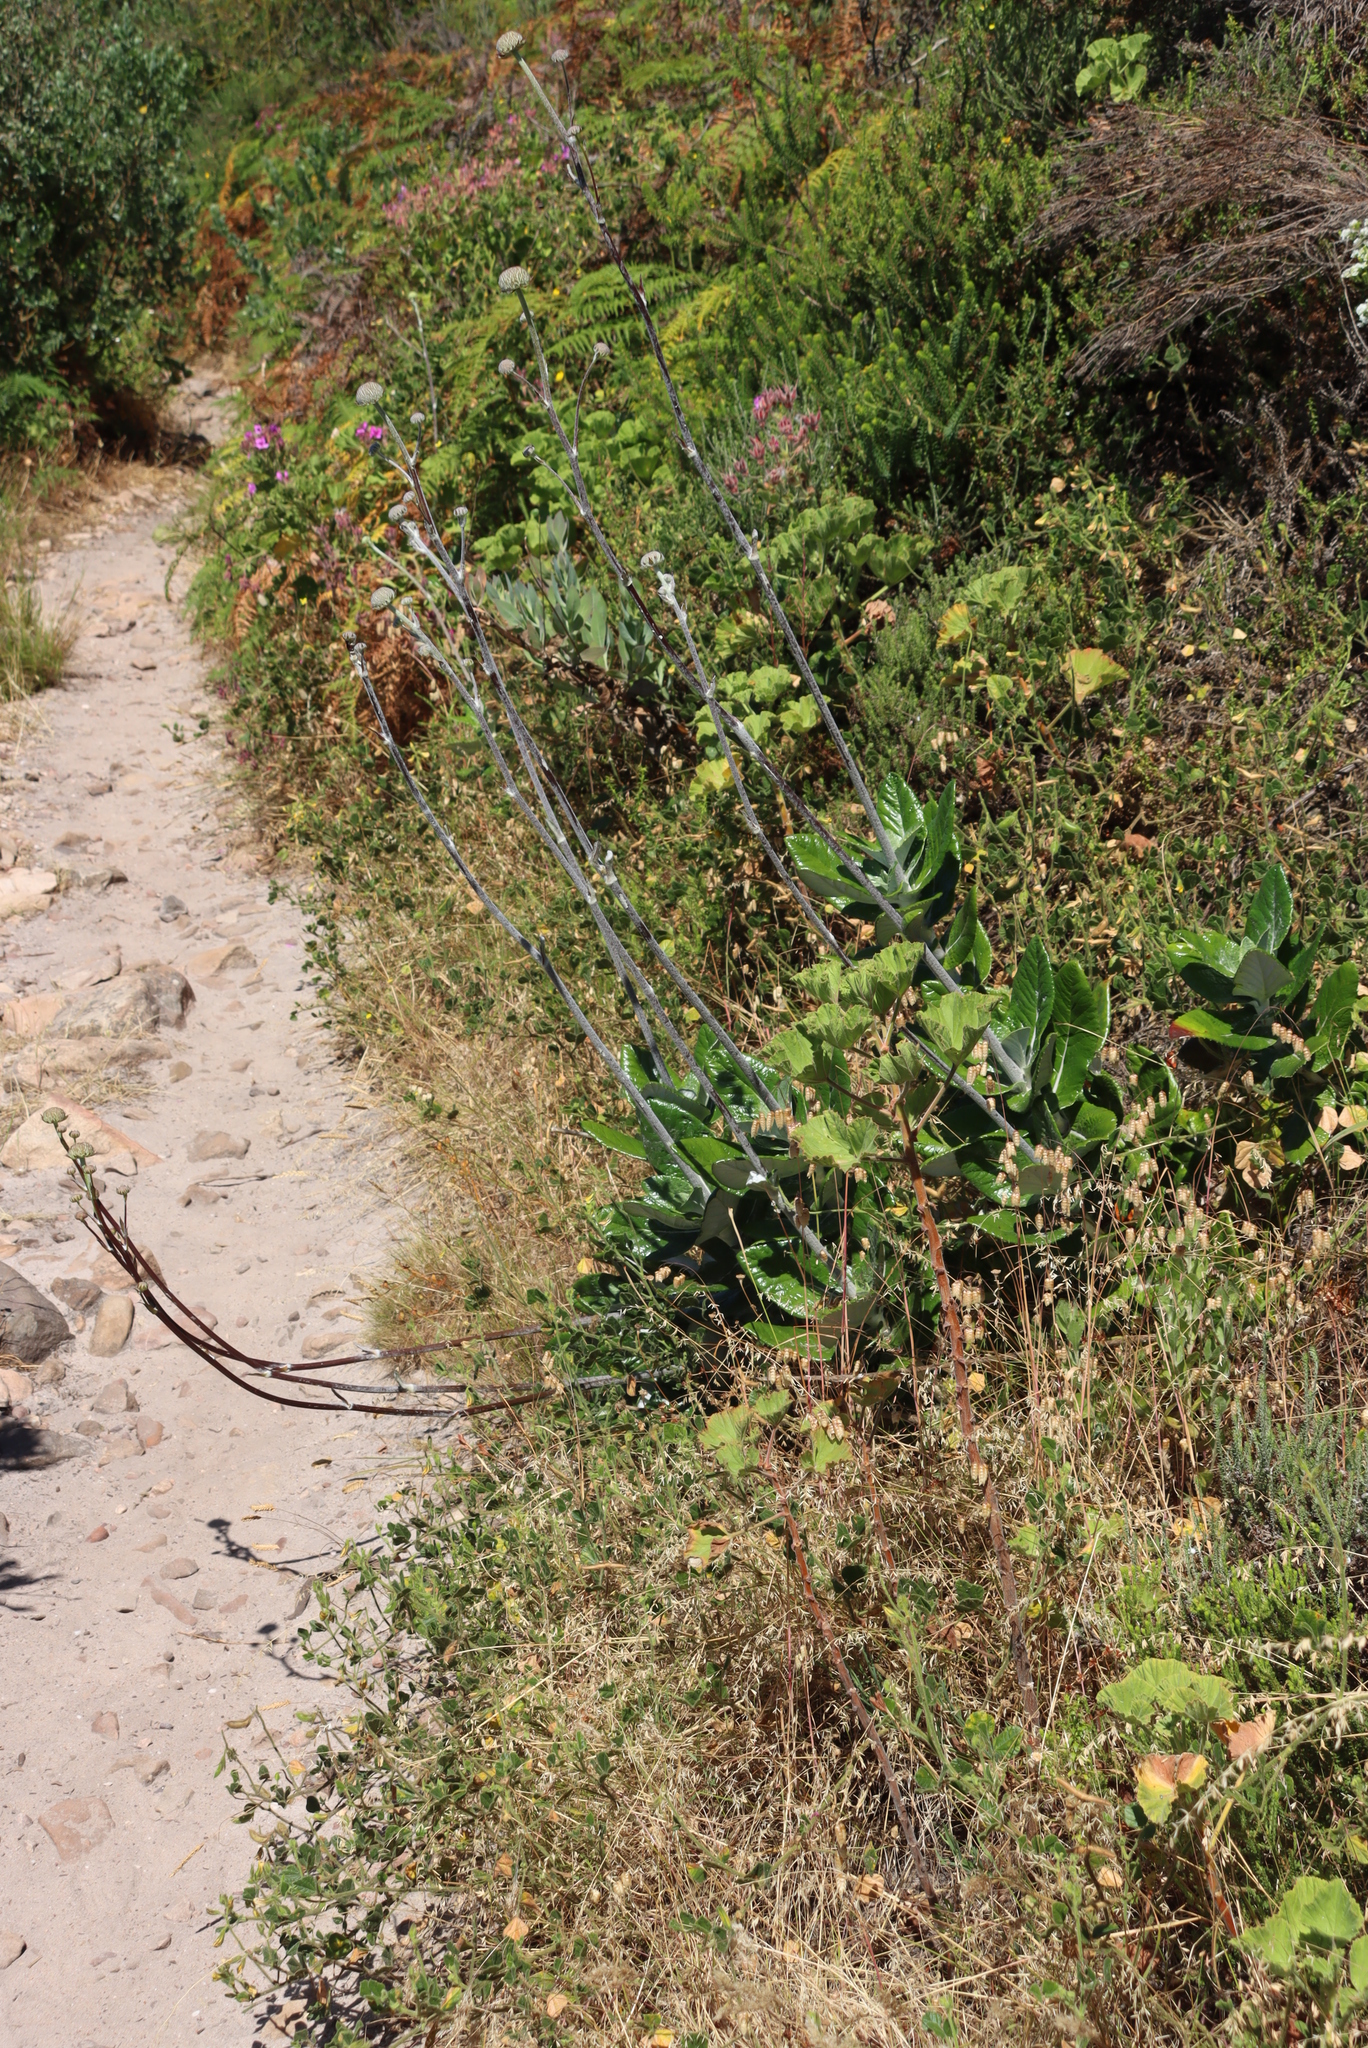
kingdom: Plantae
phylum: Tracheophyta
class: Magnoliopsida
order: Apiales
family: Apiaceae
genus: Hermas
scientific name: Hermas villosa
